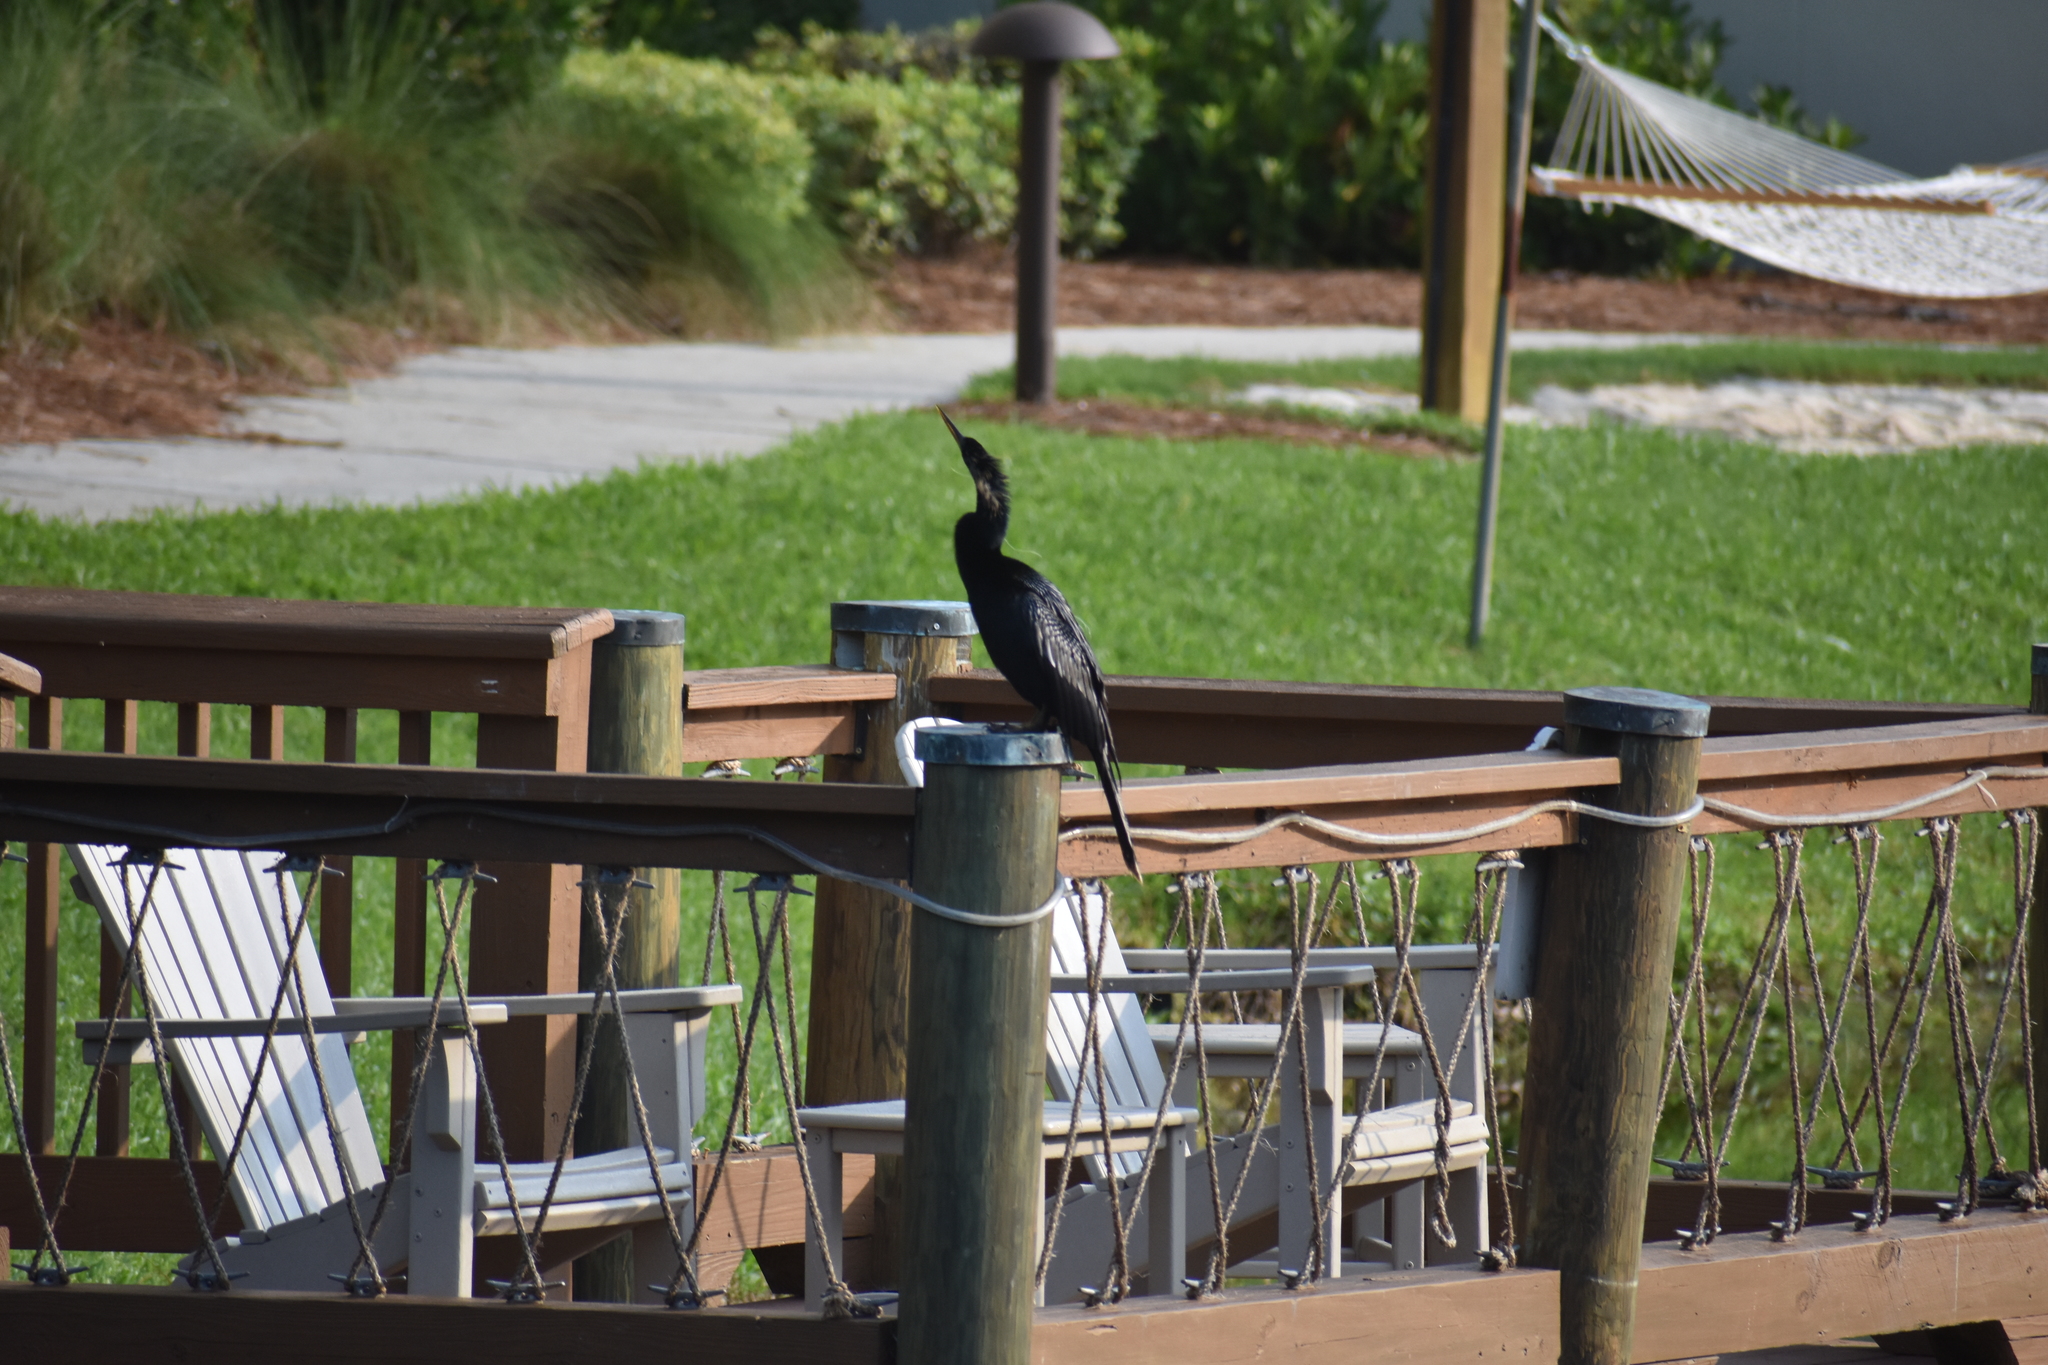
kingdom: Animalia
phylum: Chordata
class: Aves
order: Suliformes
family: Anhingidae
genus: Anhinga
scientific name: Anhinga anhinga
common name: Anhinga
